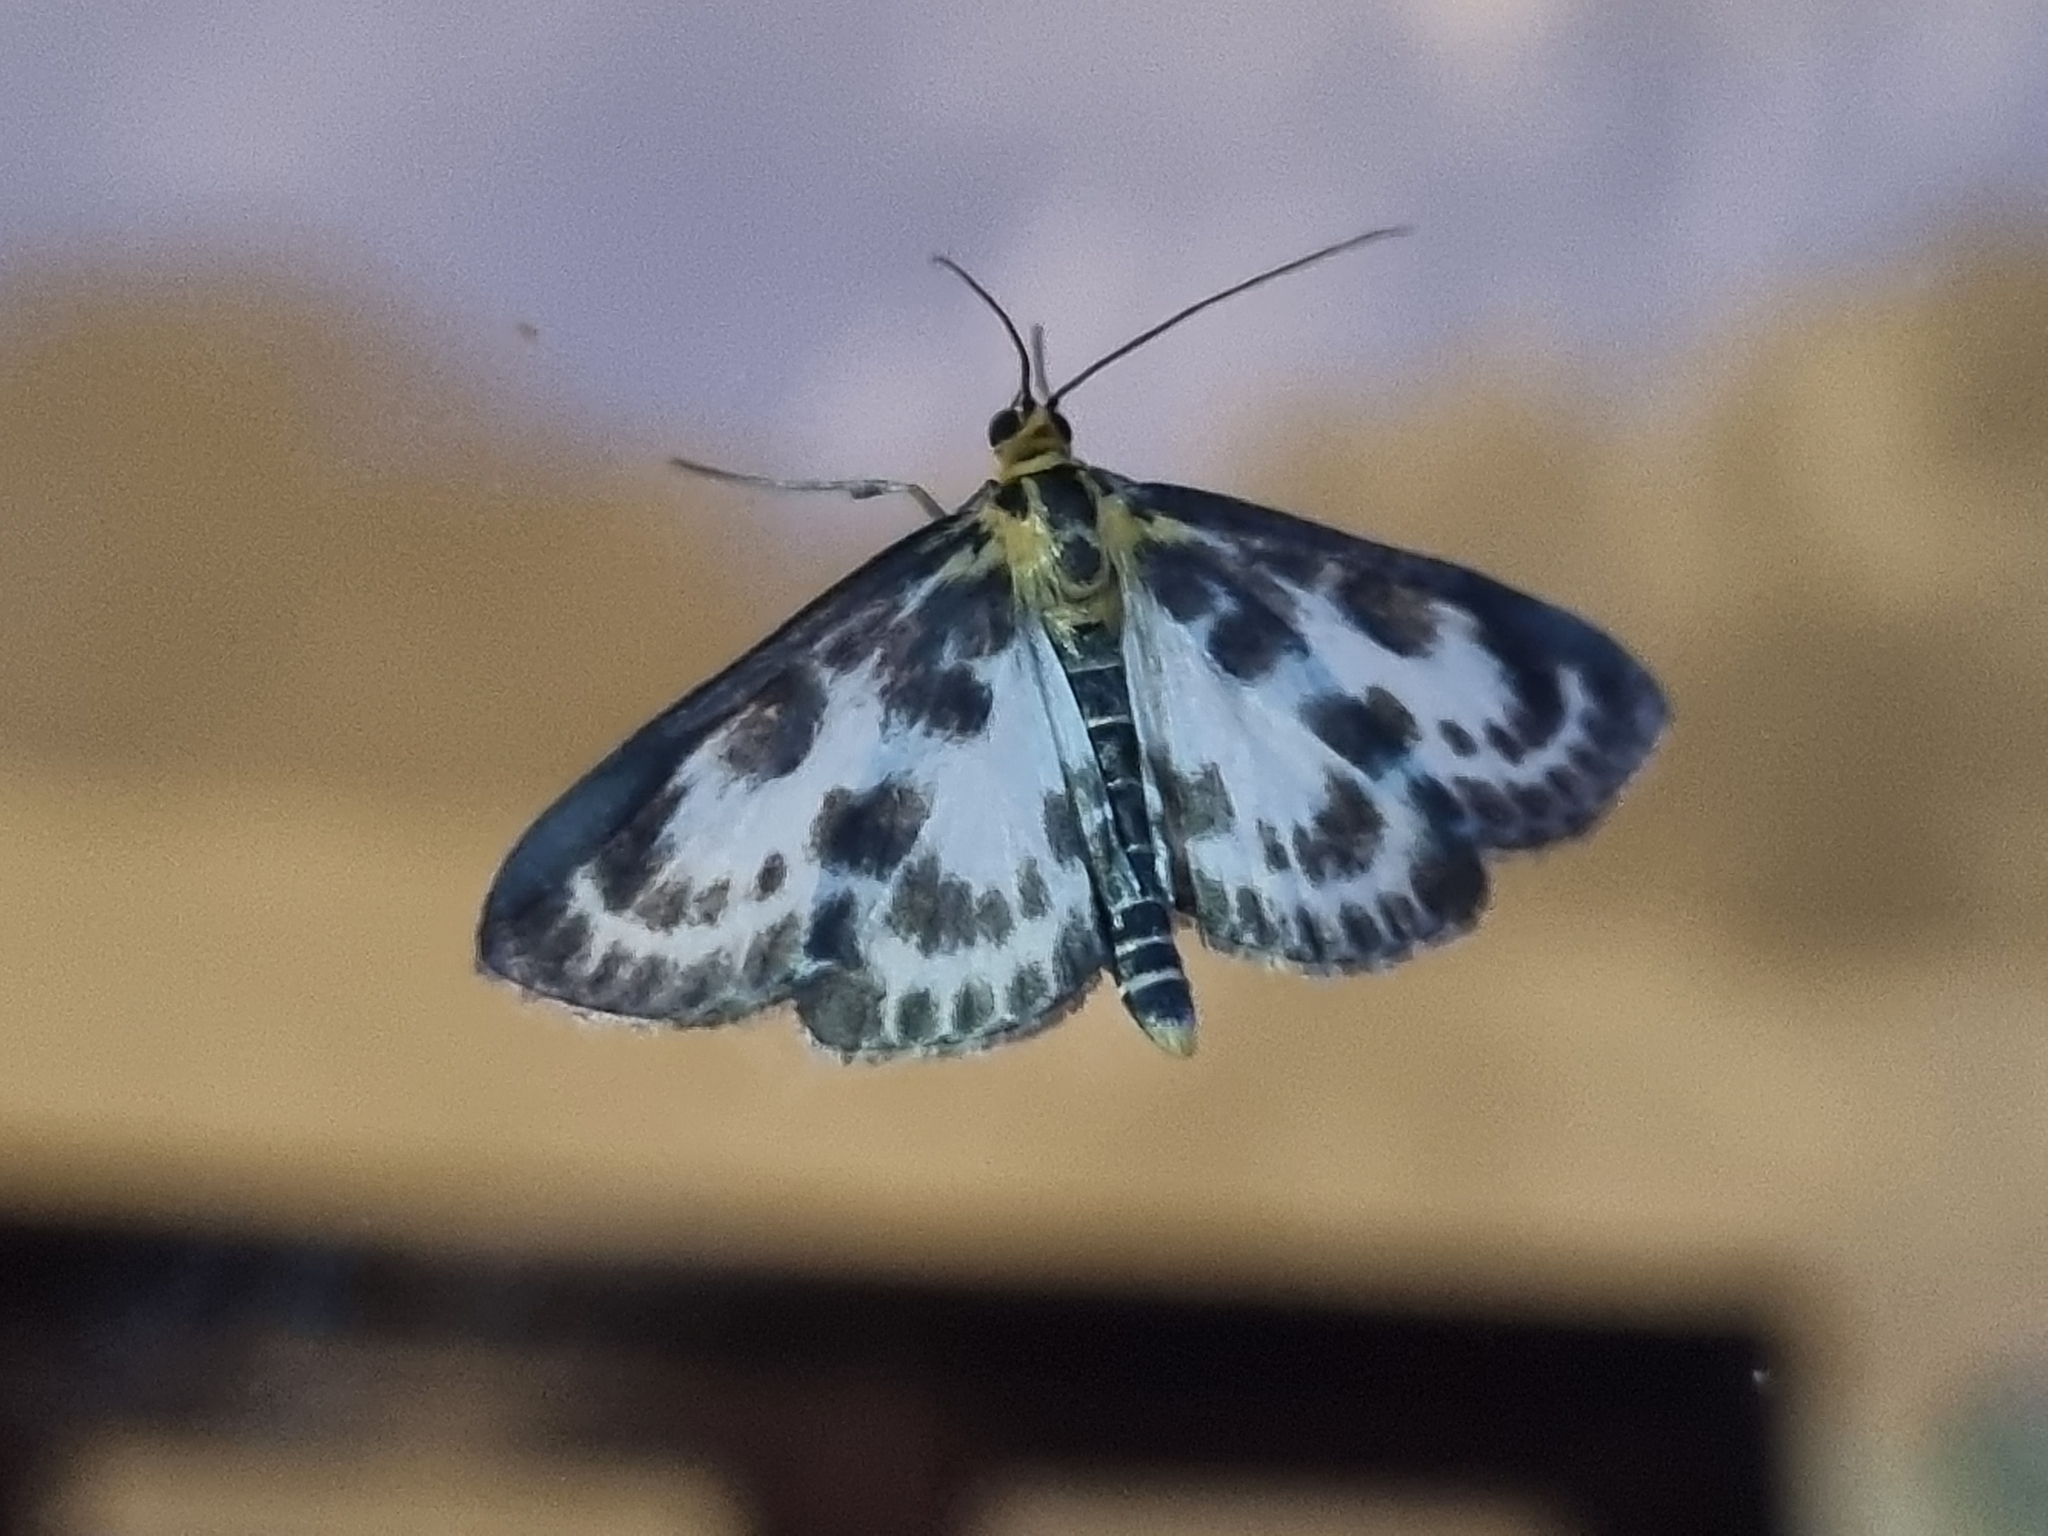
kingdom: Animalia
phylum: Arthropoda
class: Insecta
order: Lepidoptera
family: Crambidae
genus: Anania
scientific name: Anania hortulata
